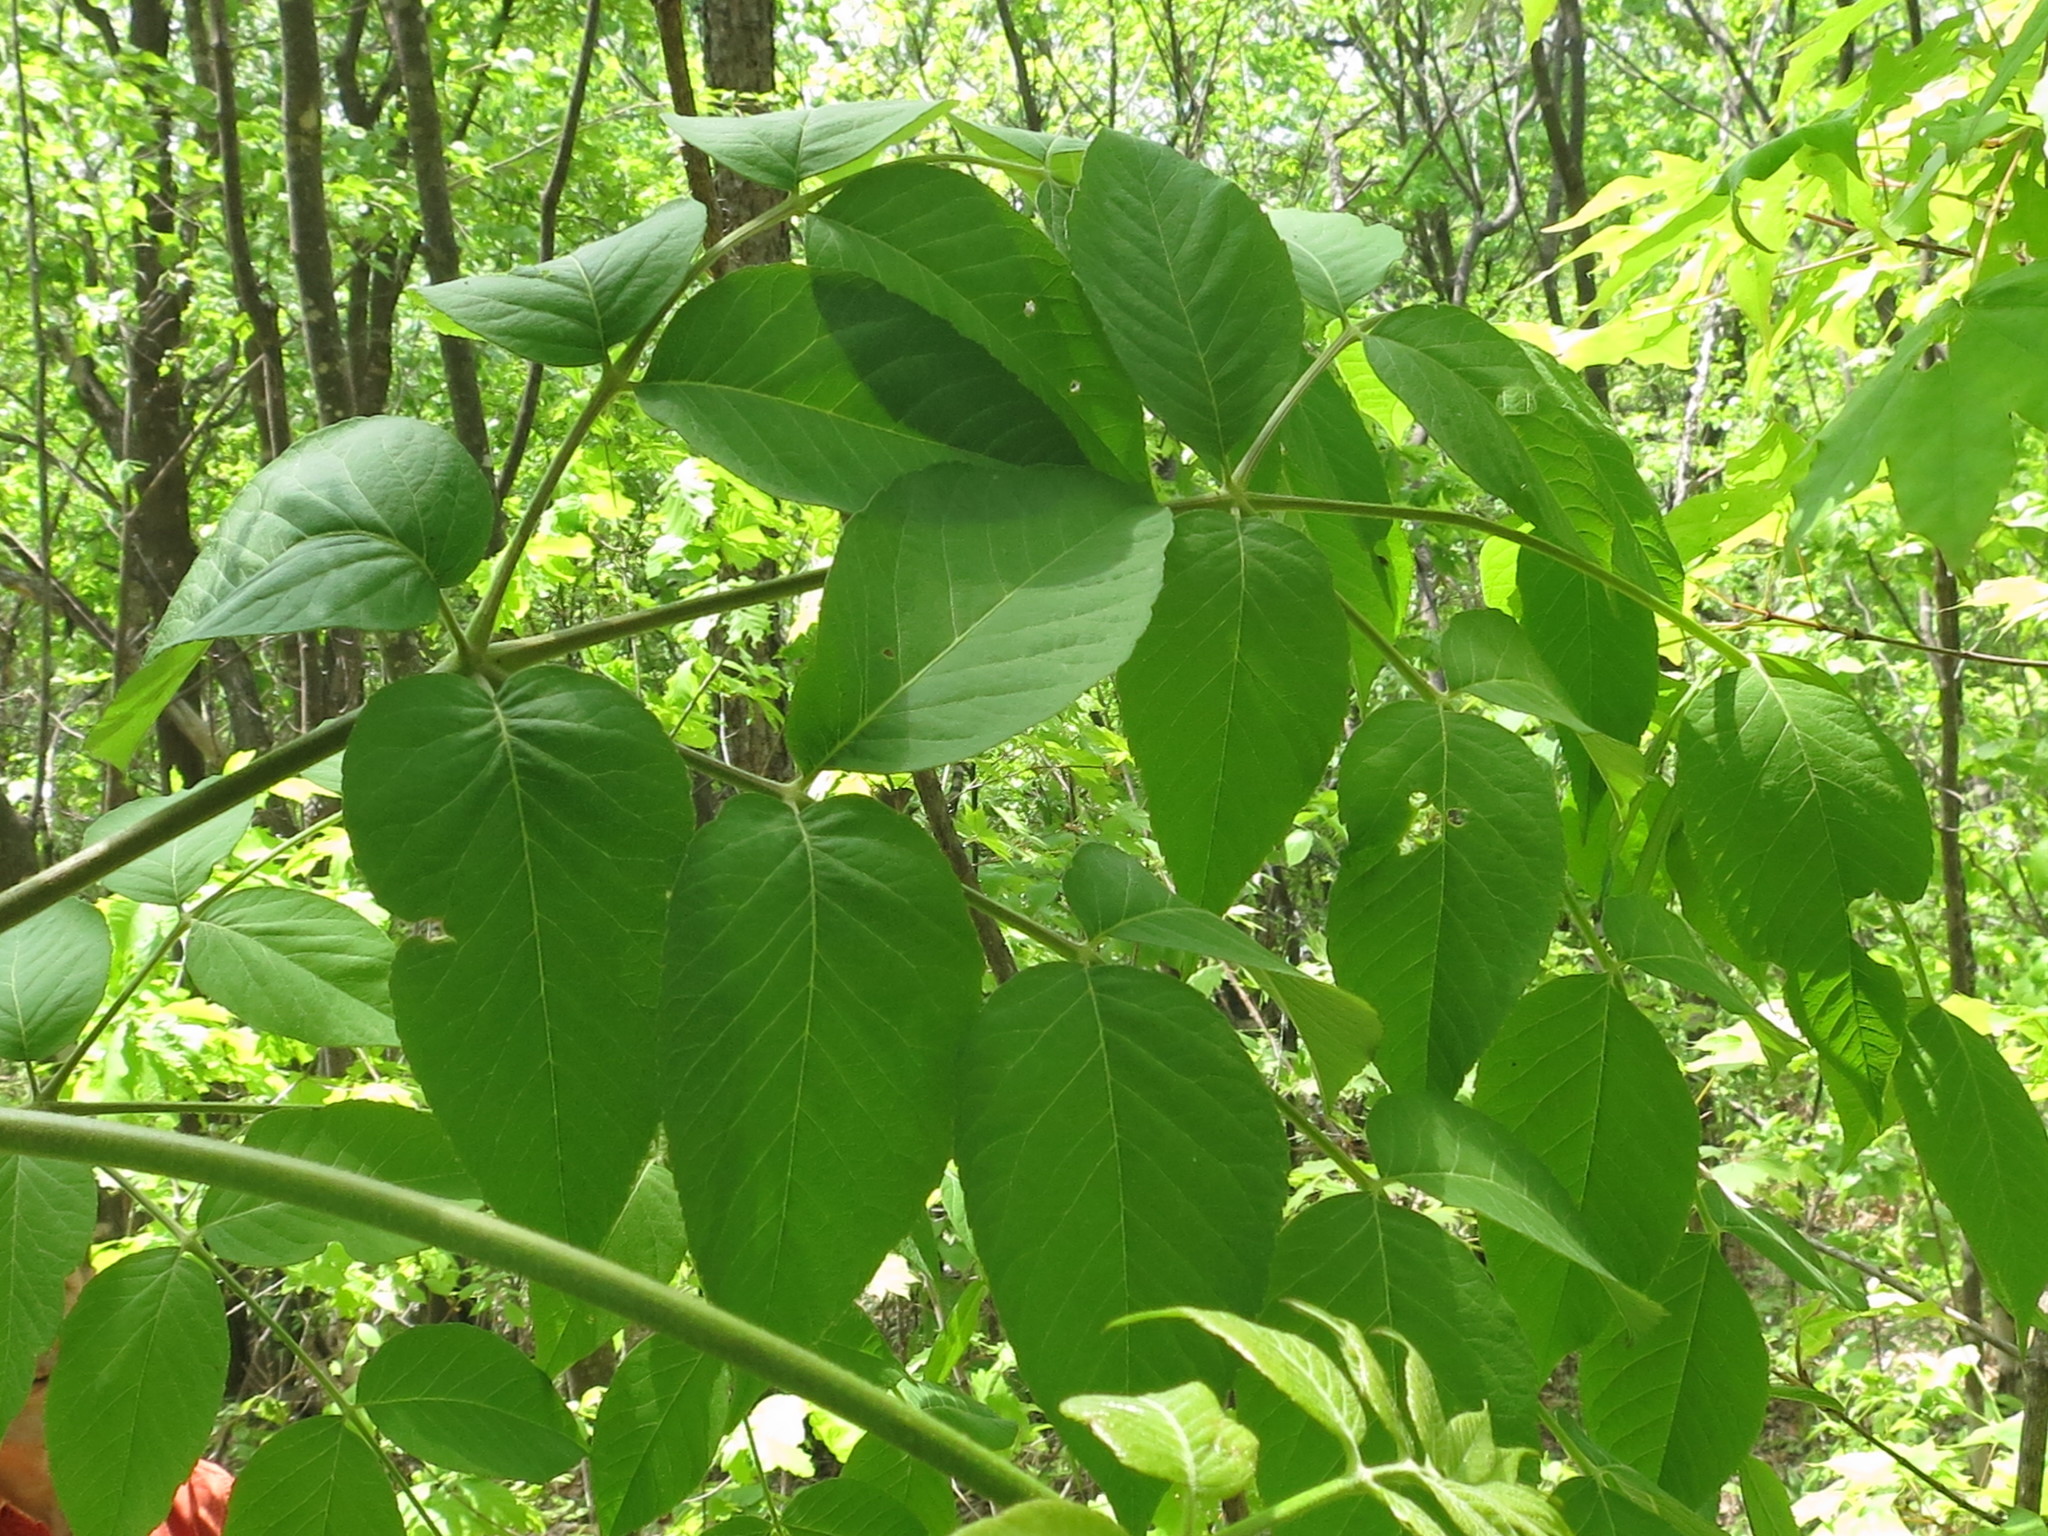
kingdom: Plantae
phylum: Tracheophyta
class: Magnoliopsida
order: Apiales
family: Araliaceae
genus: Aralia
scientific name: Aralia elata
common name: Japanese angelica-tree
